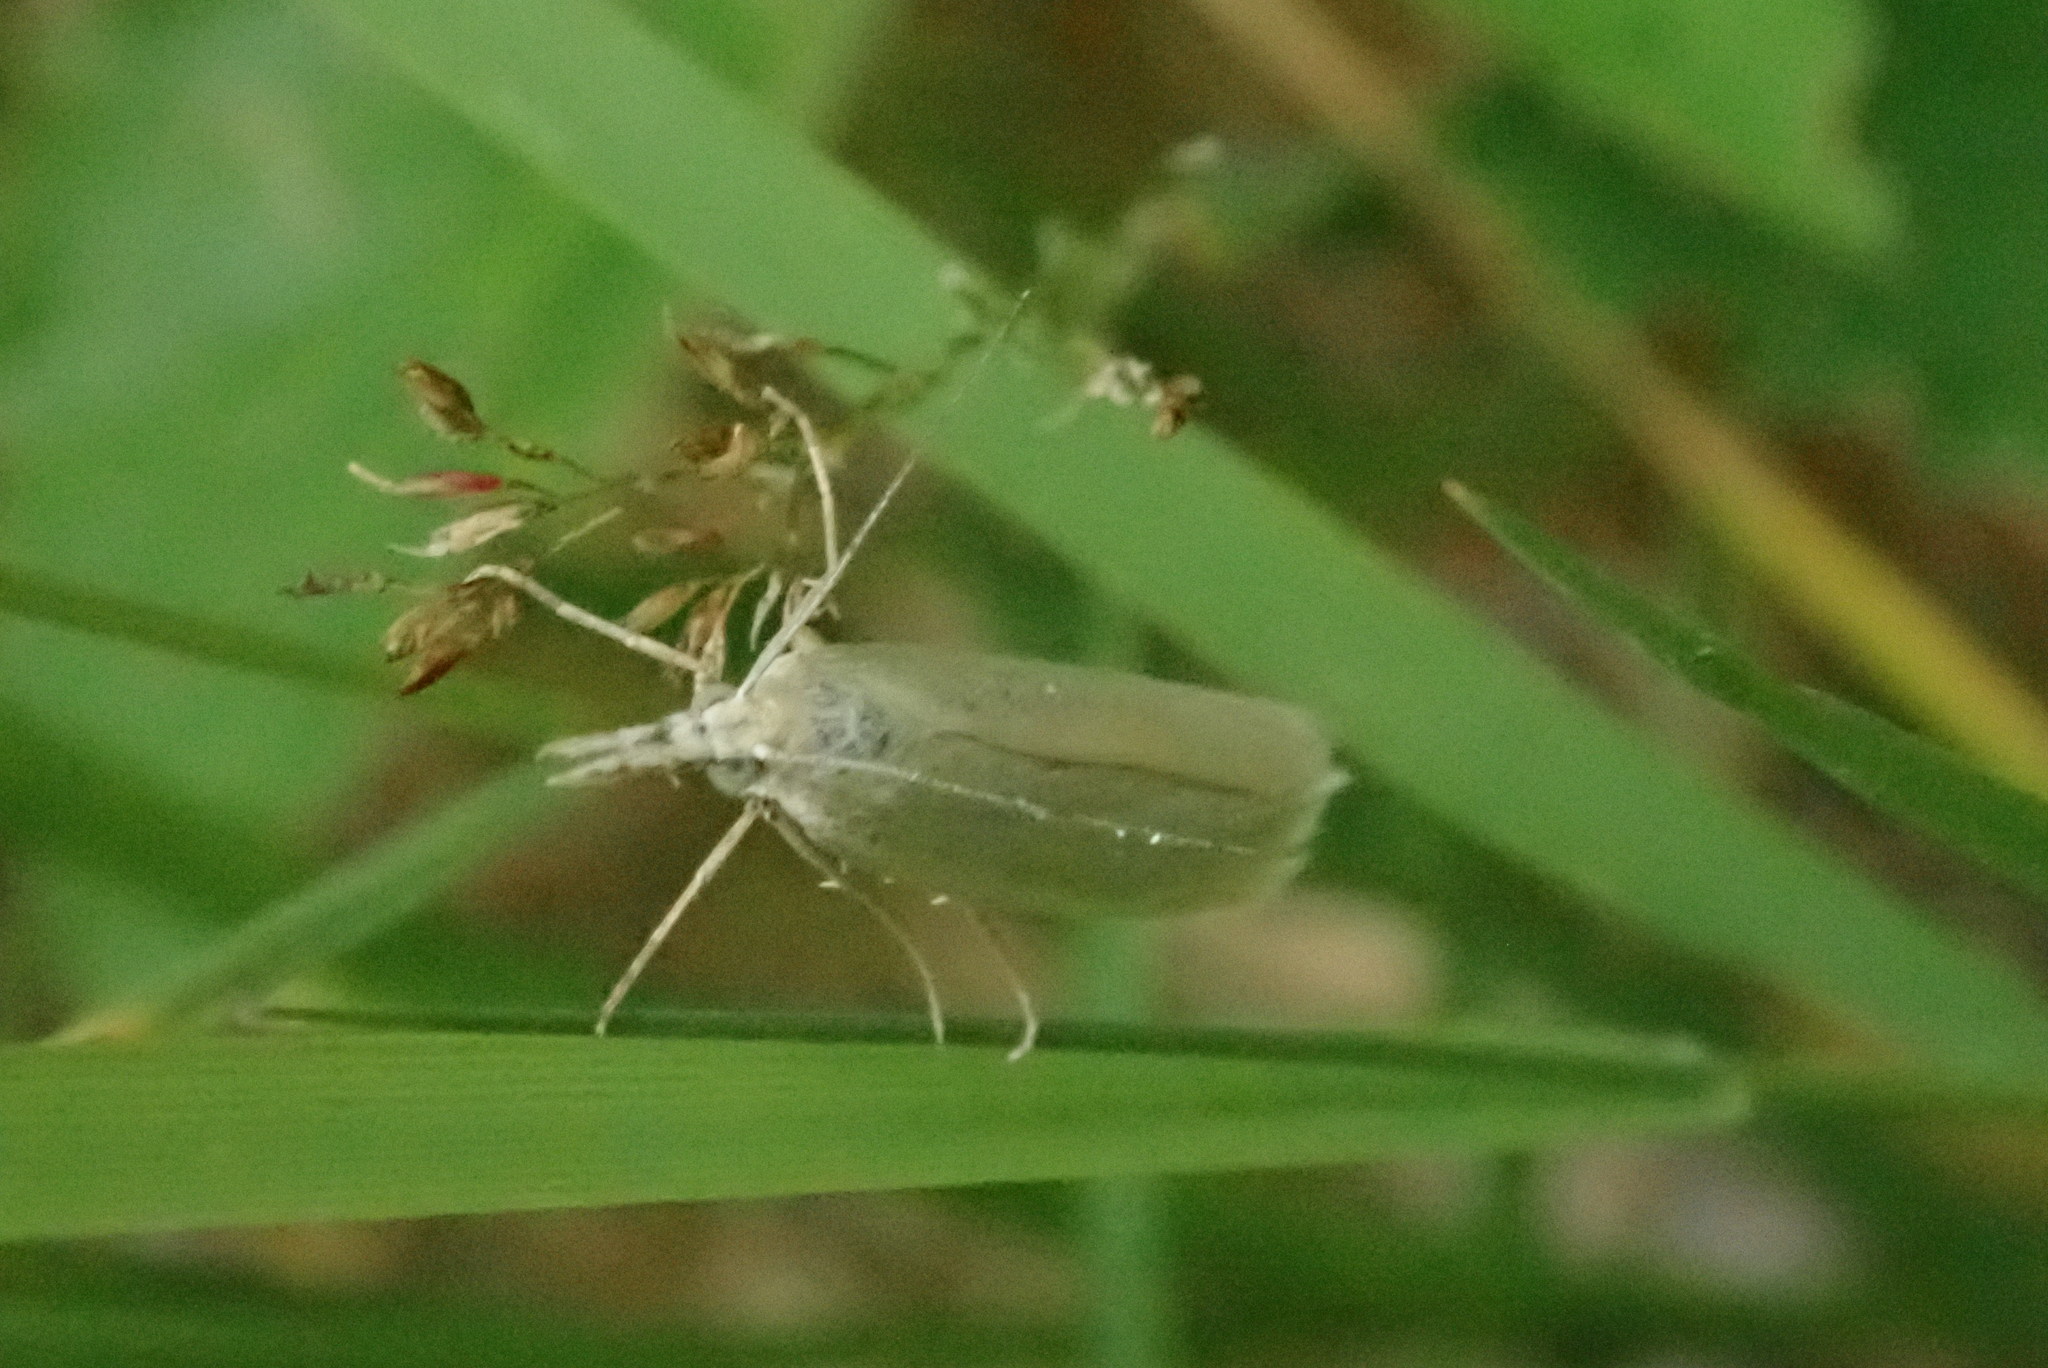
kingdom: Animalia
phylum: Arthropoda
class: Insecta
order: Lepidoptera
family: Crambidae
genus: Crambus
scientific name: Crambus perlellus
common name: Yellow satin veneer
